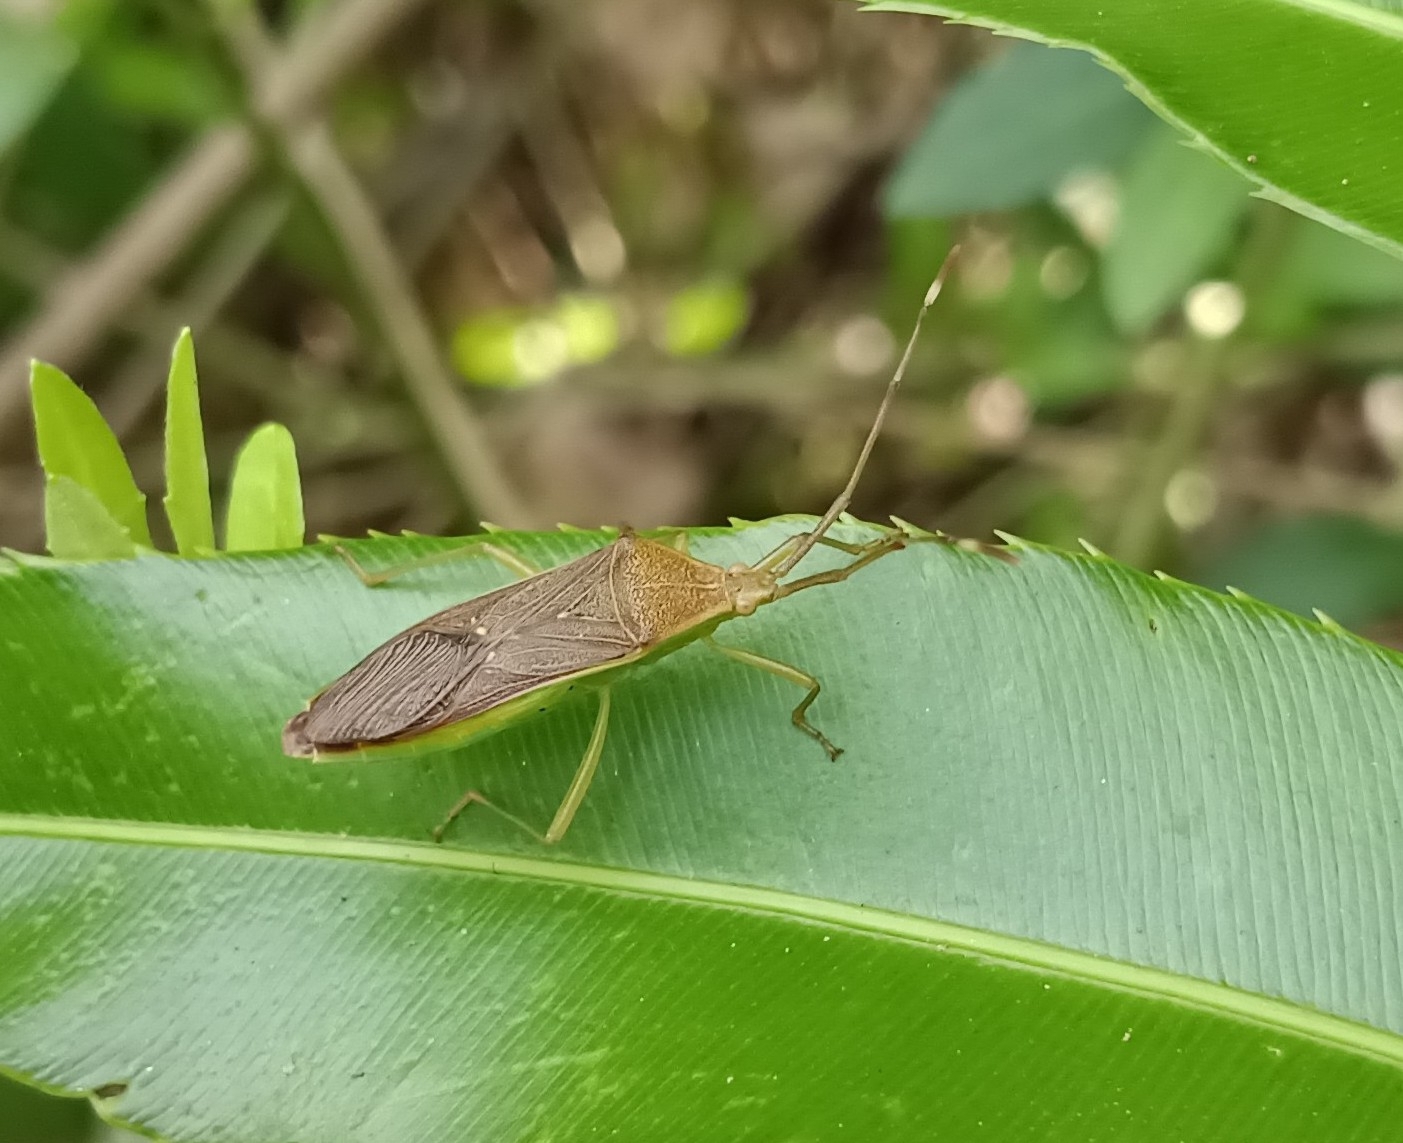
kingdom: Animalia
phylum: Arthropoda
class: Insecta
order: Hemiptera
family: Coreidae
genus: Homoeocerus
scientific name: Homoeocerus relatus
